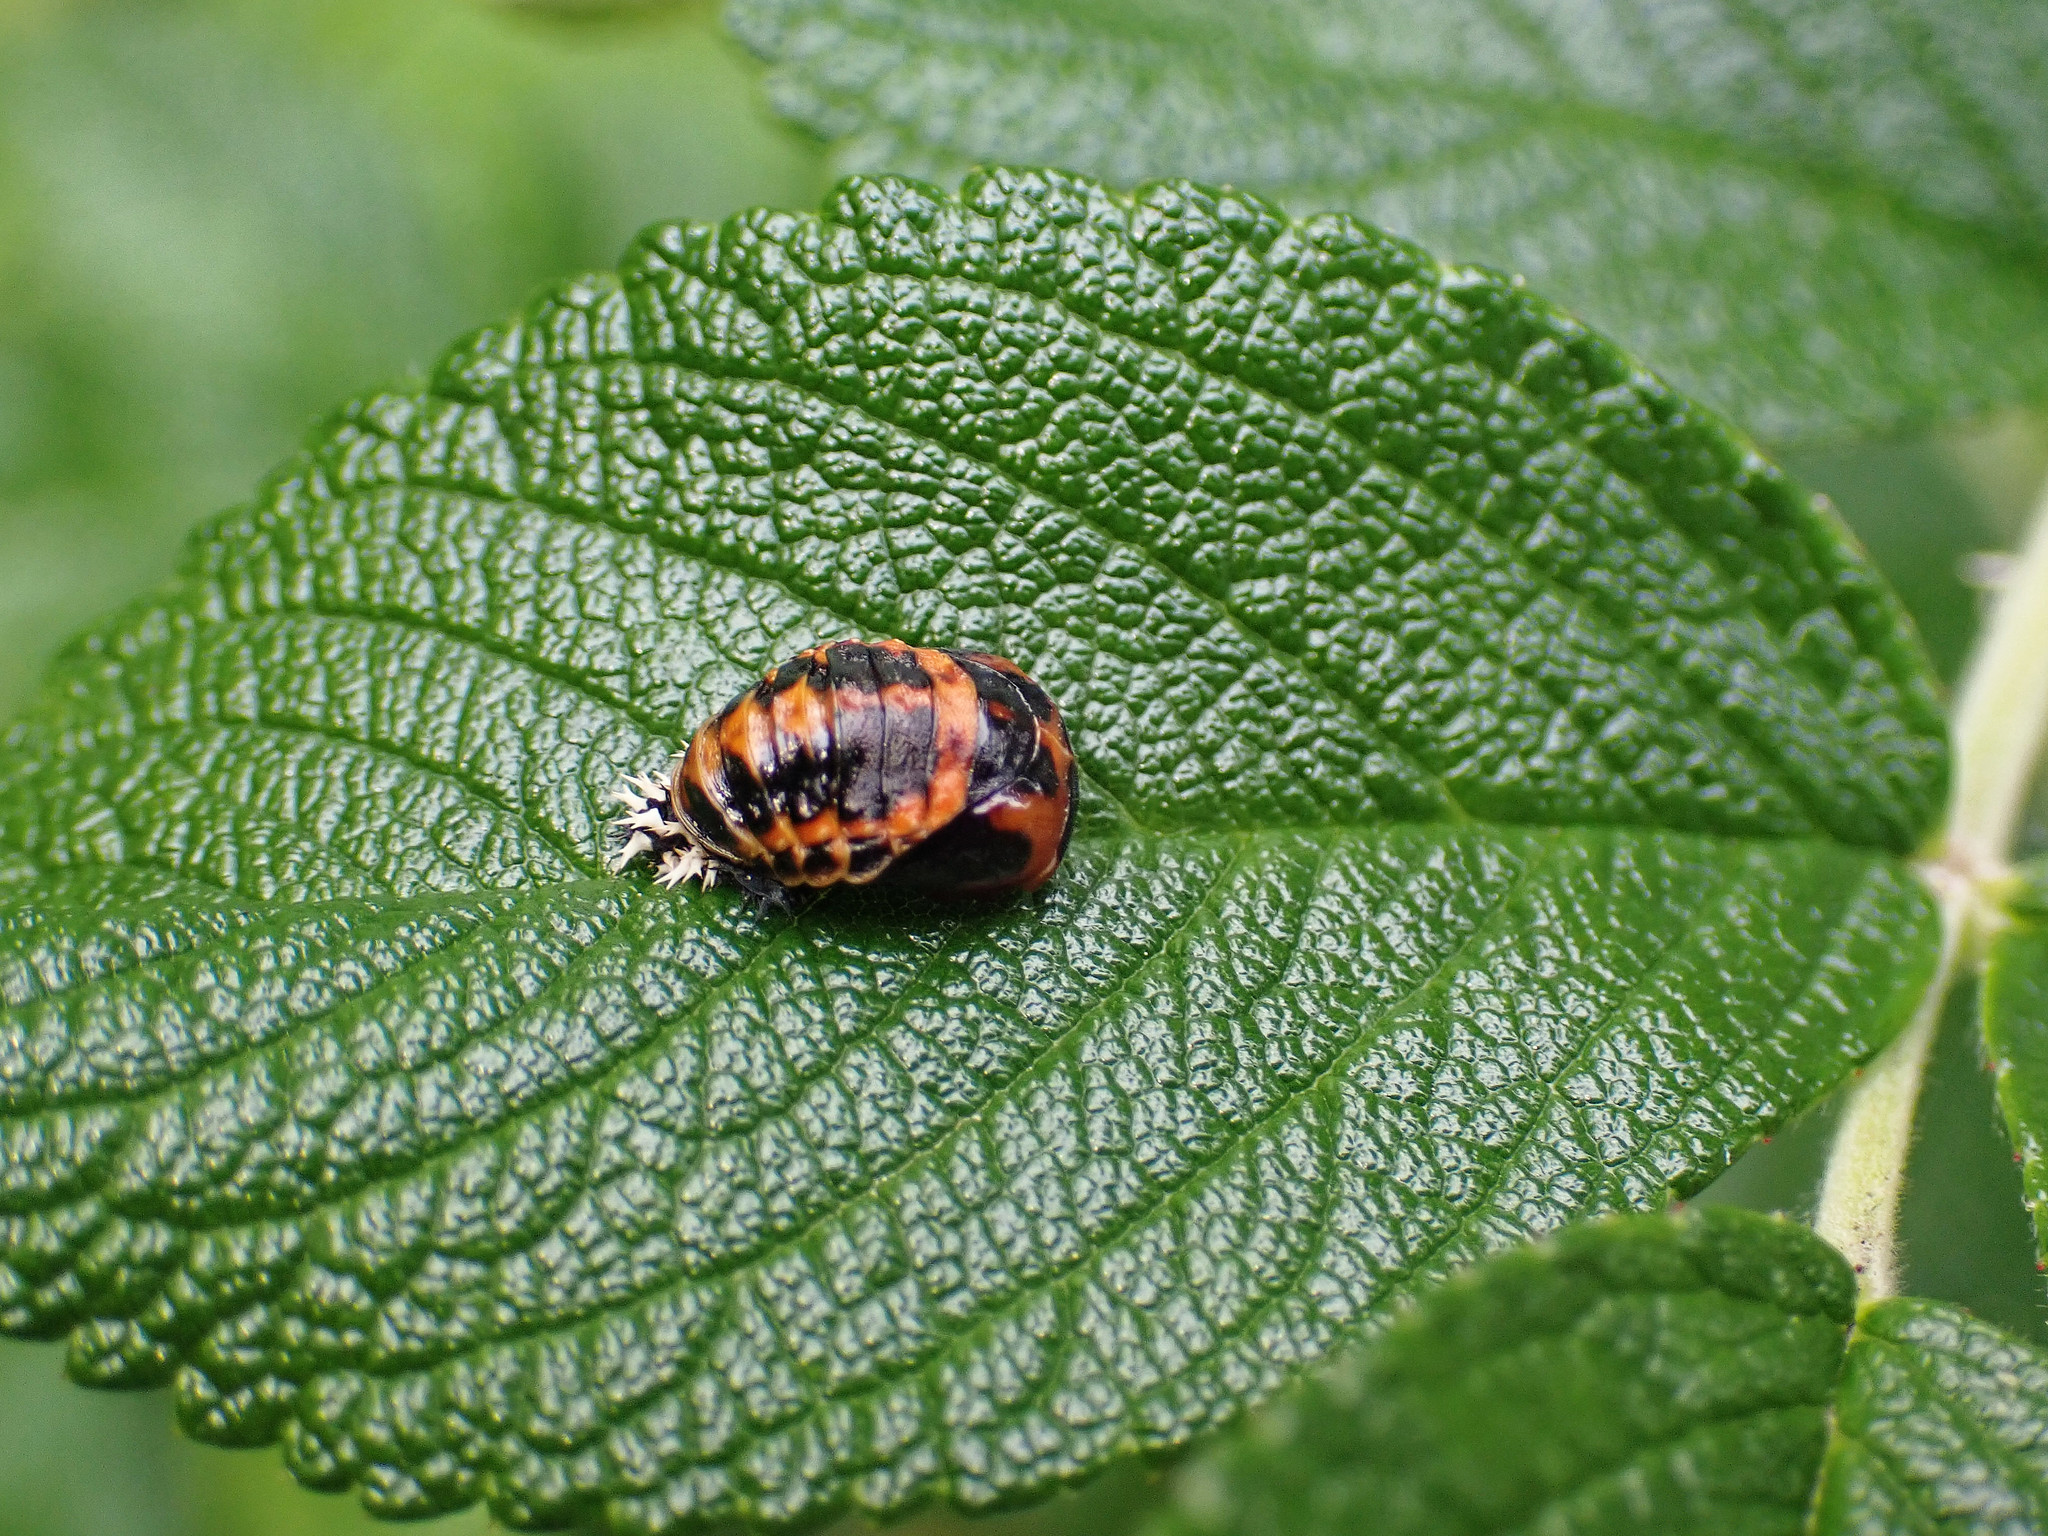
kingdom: Animalia
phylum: Arthropoda
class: Insecta
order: Coleoptera
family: Coccinellidae
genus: Harmonia
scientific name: Harmonia axyridis
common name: Harlequin ladybird
